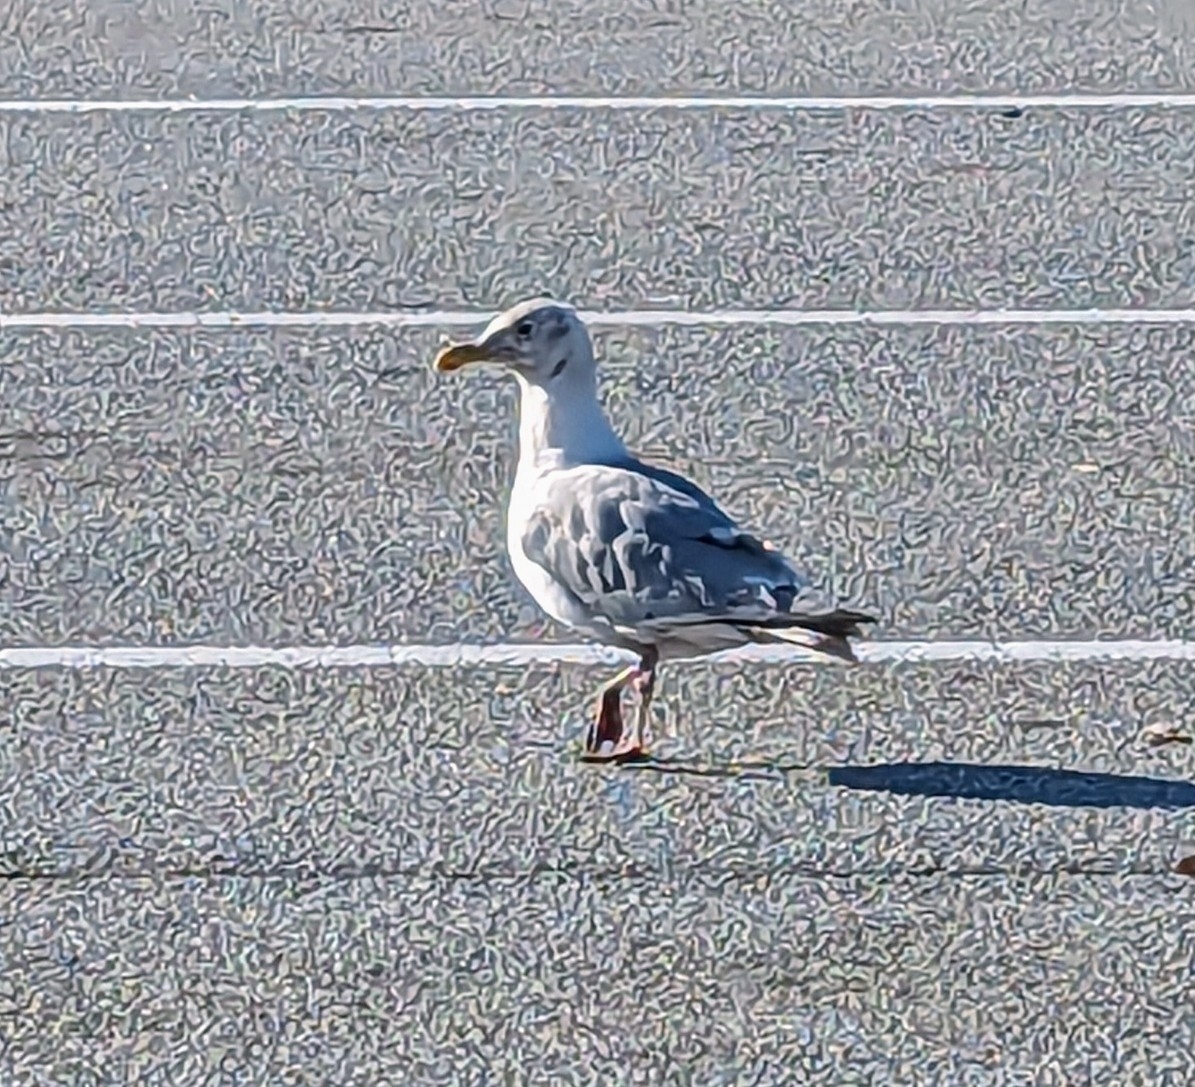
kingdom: Animalia
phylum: Chordata
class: Aves
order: Charadriiformes
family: Laridae
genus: Larus
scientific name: Larus
